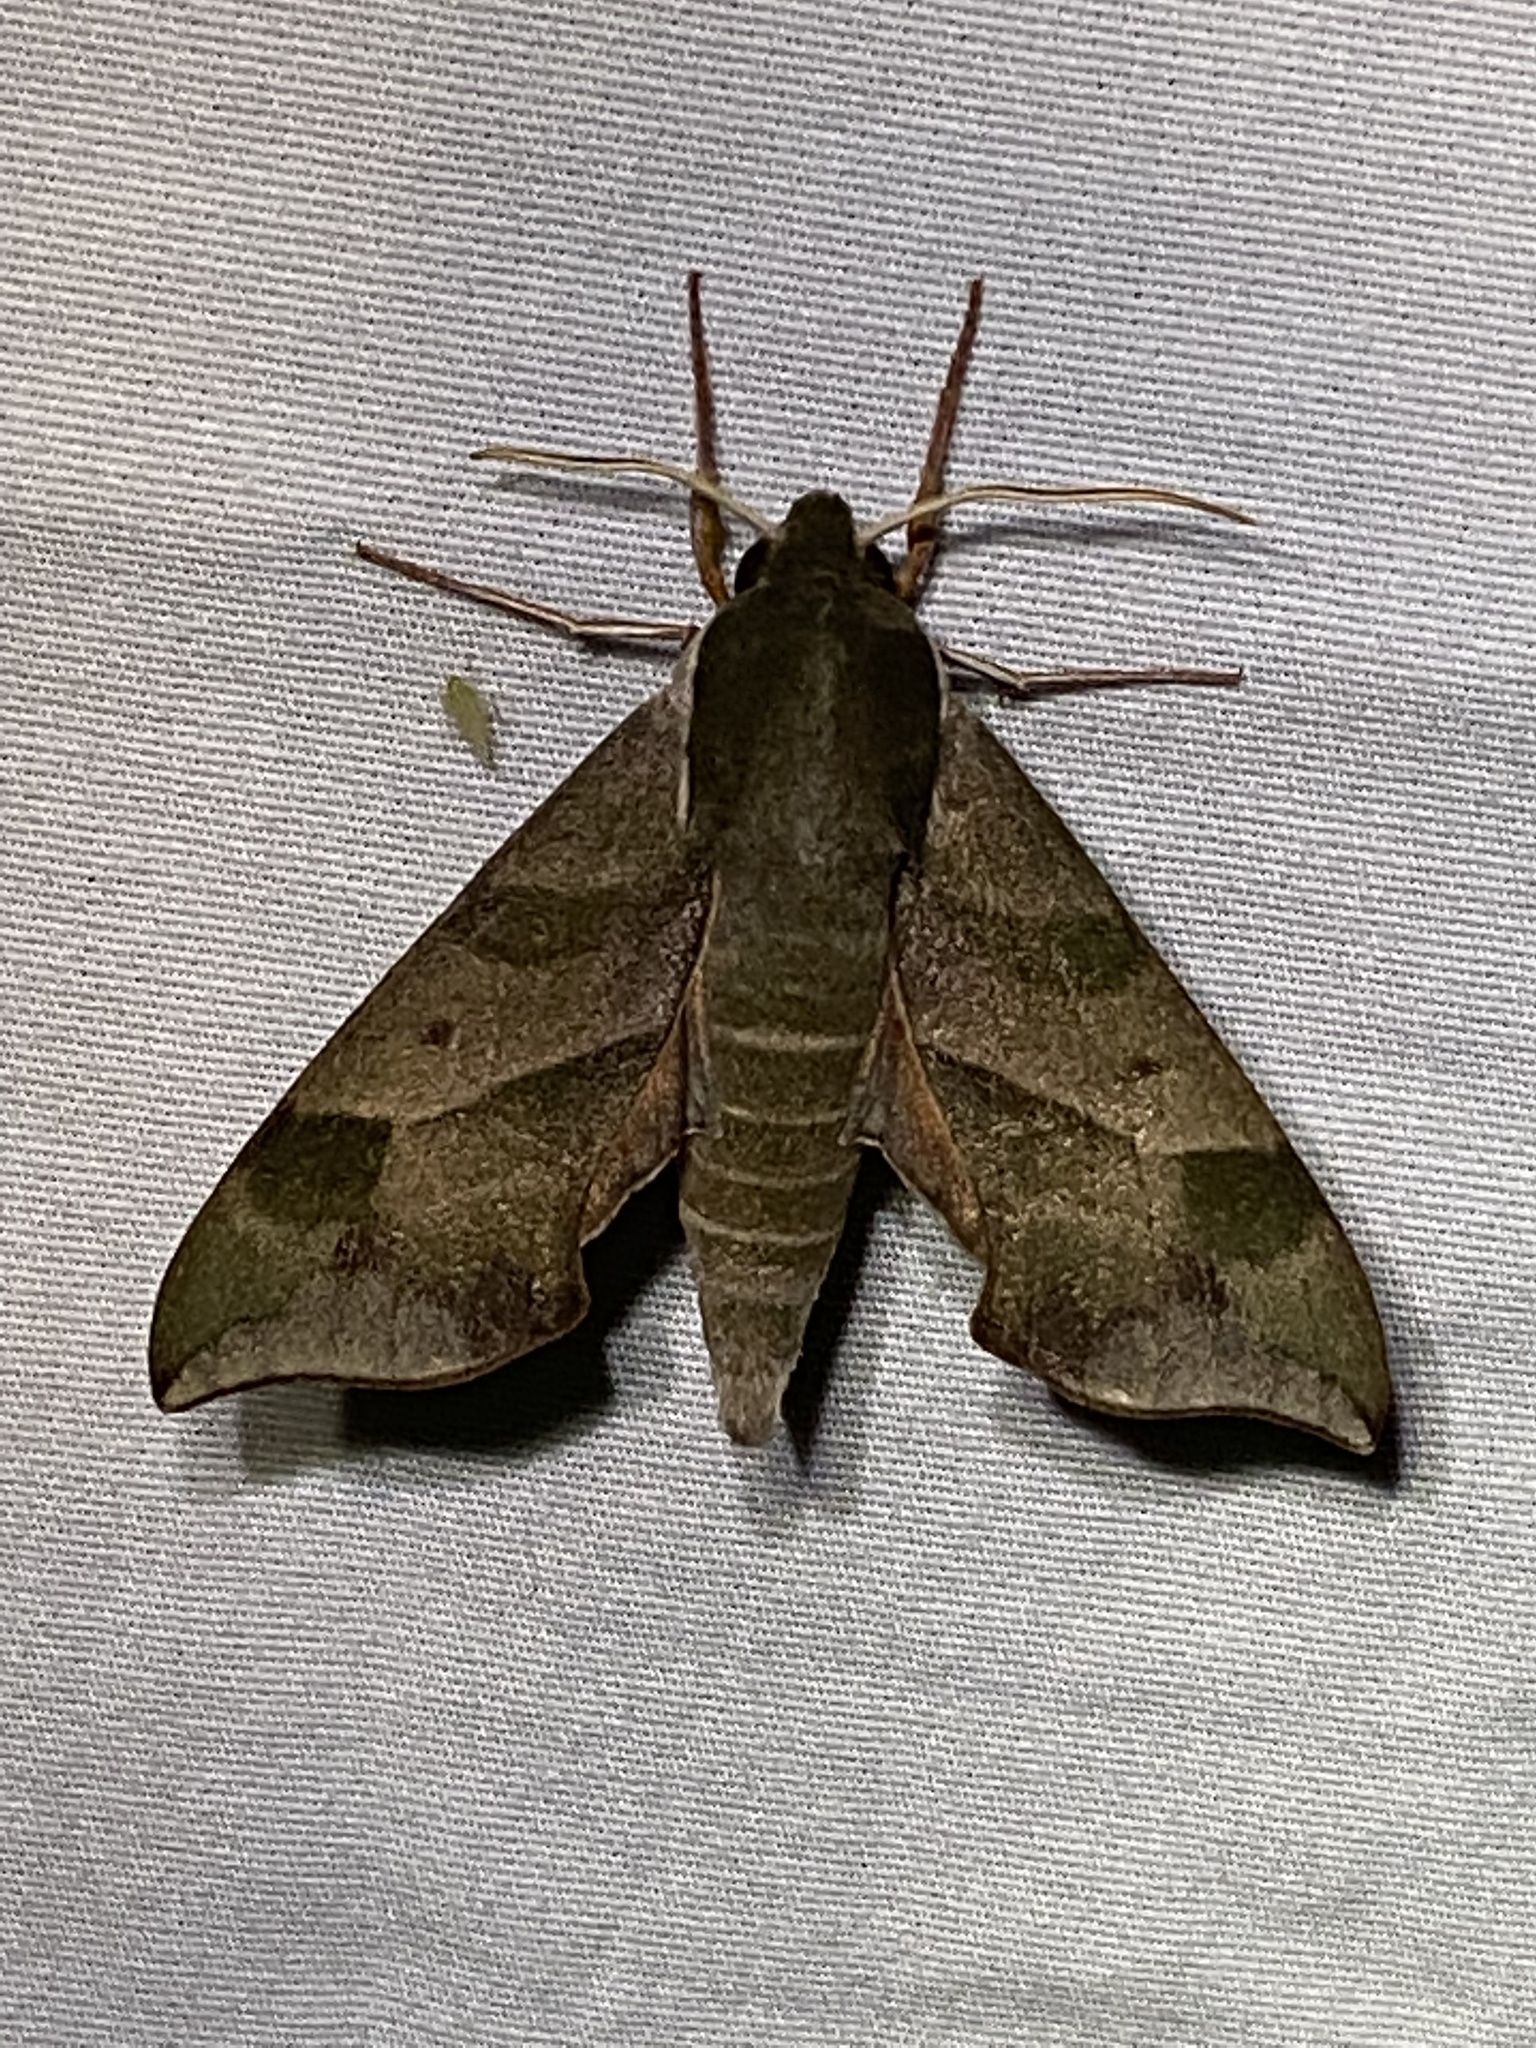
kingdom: Animalia
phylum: Arthropoda
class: Insecta
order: Lepidoptera
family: Sphingidae
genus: Darapsa
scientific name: Darapsa myron
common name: Hog sphinx
